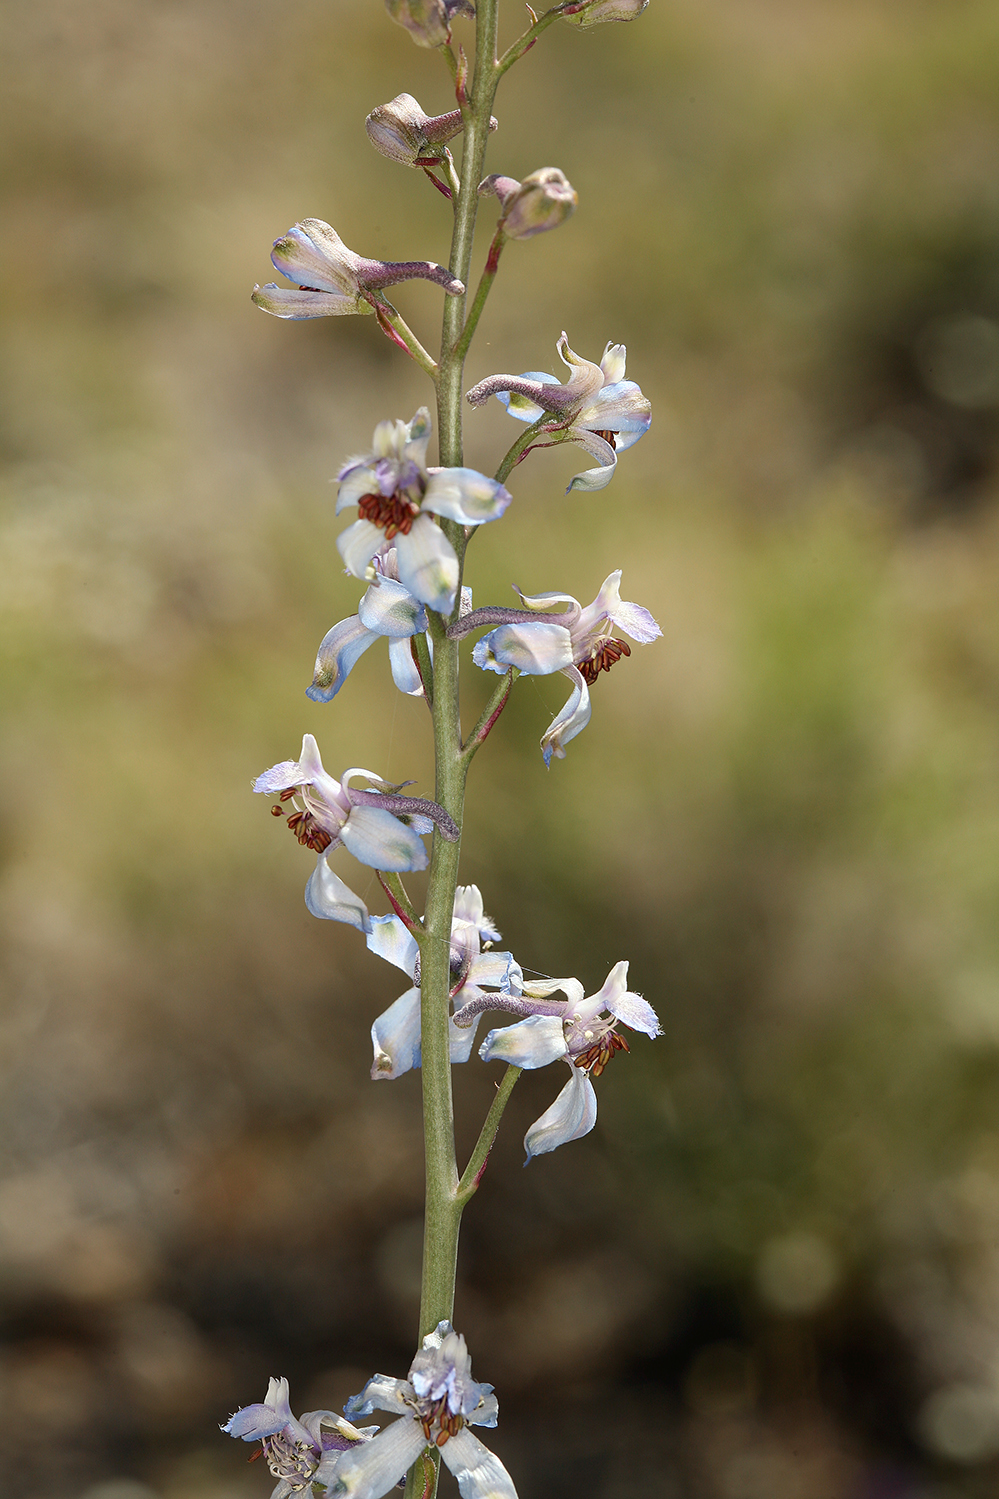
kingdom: Plantae
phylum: Tracheophyta
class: Magnoliopsida
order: Ranunculales
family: Ranunculaceae
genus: Delphinium
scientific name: Delphinium parishii
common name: Apache larkspur
